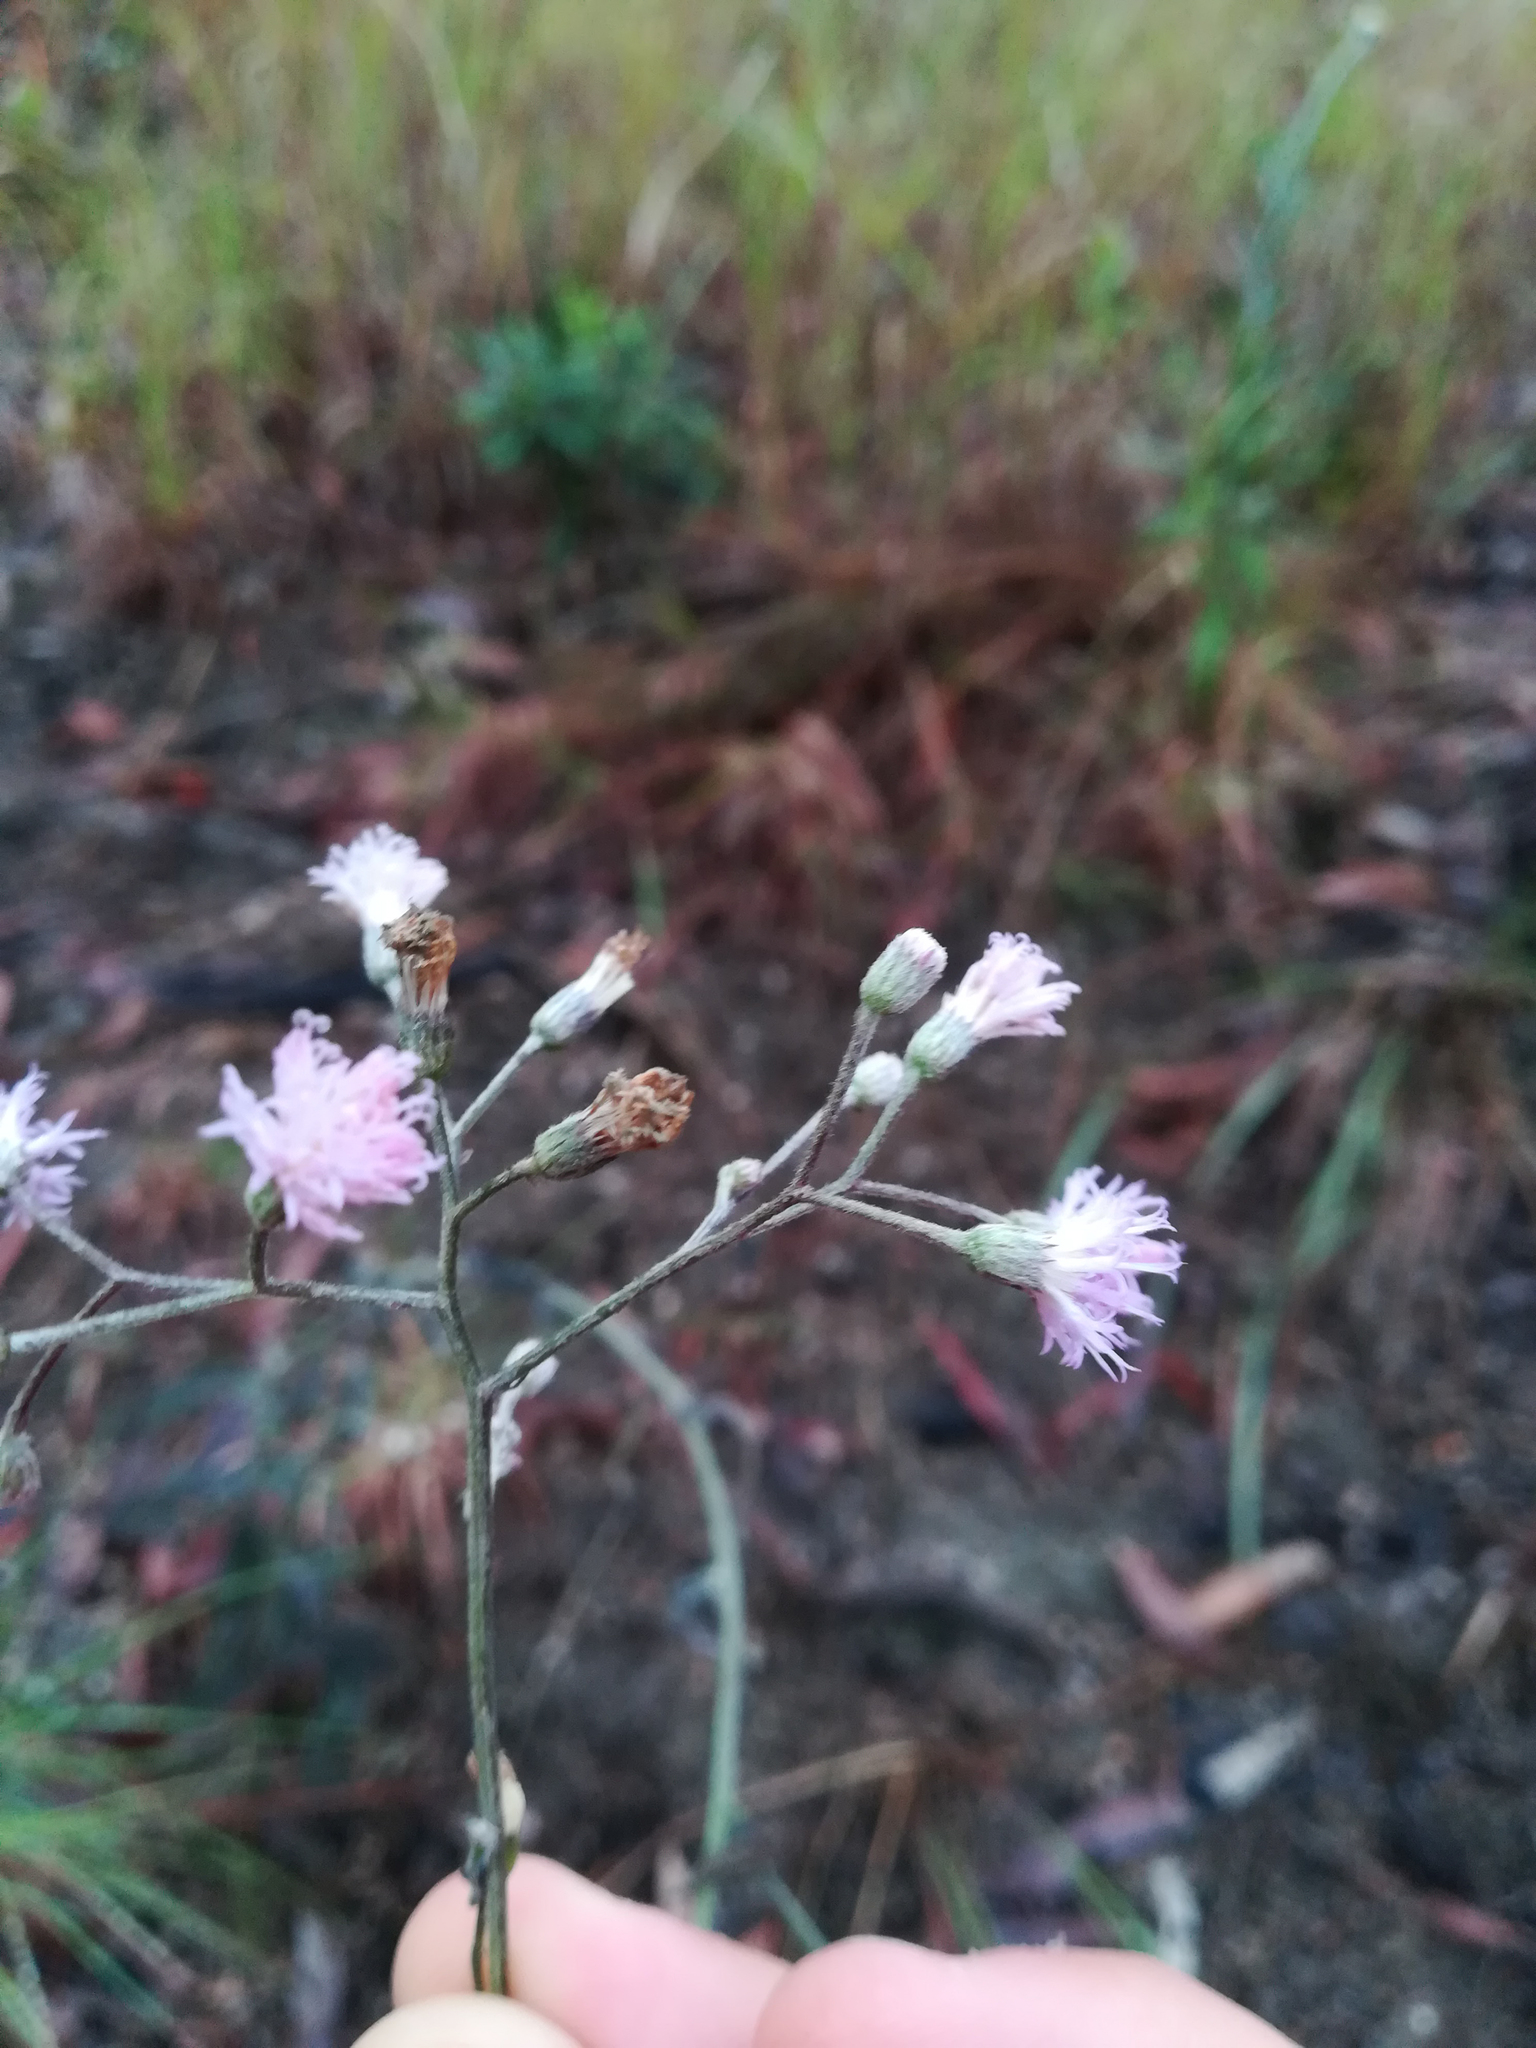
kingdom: Plantae
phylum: Tracheophyta
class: Magnoliopsida
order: Asterales
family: Asteraceae
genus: Cyanthillium
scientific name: Cyanthillium cinereum
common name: Little ironweed
